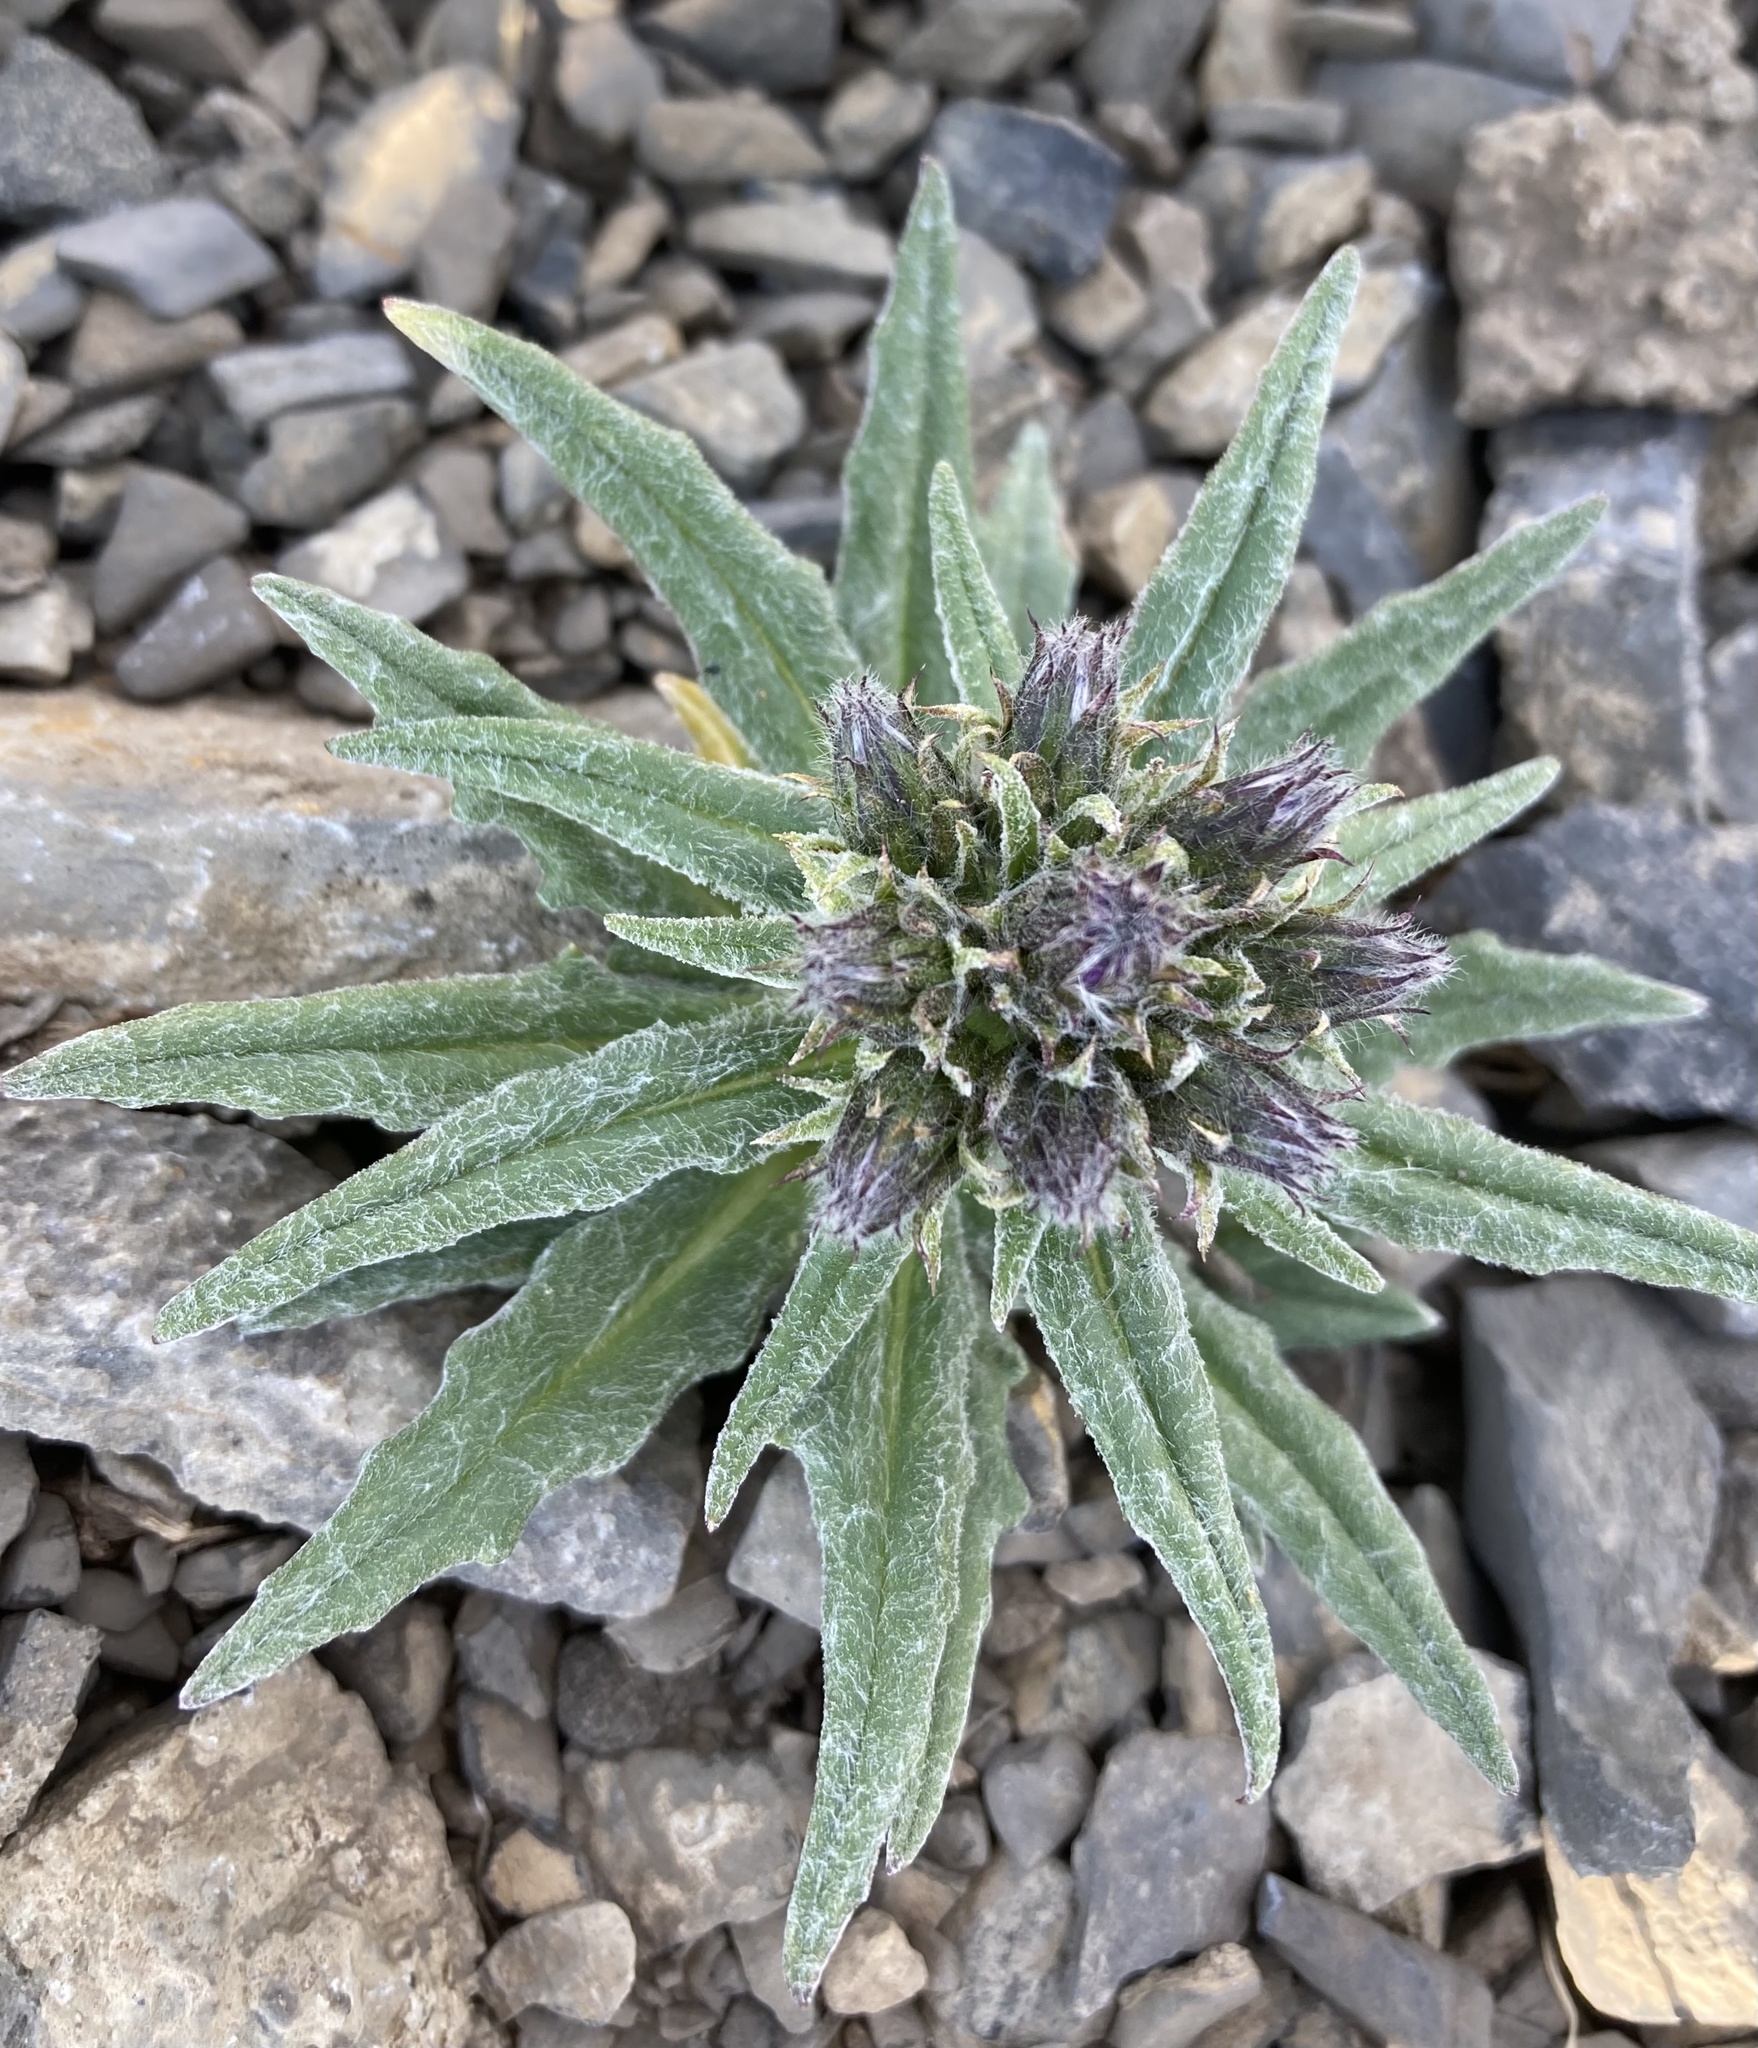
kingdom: Plantae
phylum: Tracheophyta
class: Magnoliopsida
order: Asterales
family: Asteraceae
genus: Saussurea
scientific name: Saussurea nuda
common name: Chaffless saw-wort
